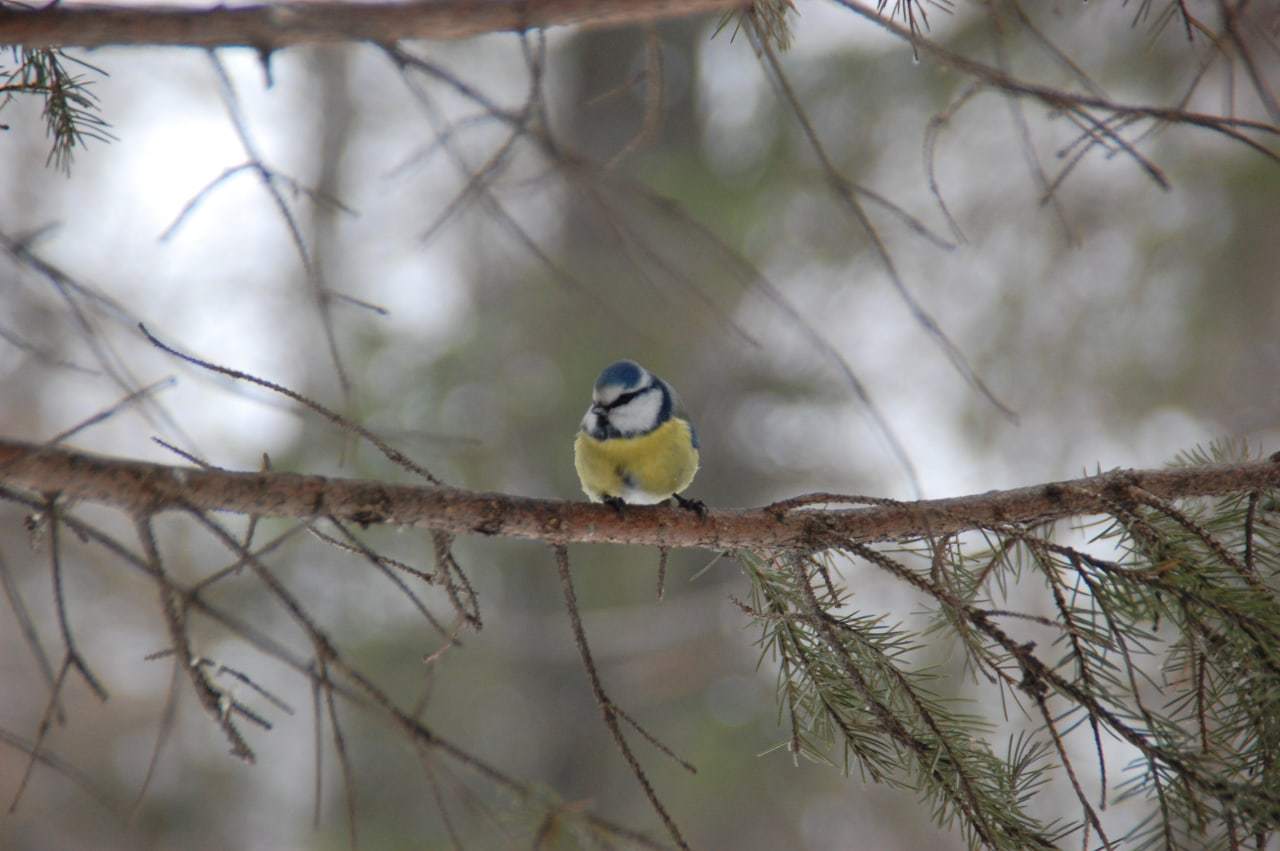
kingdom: Animalia
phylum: Chordata
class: Aves
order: Passeriformes
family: Paridae
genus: Cyanistes
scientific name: Cyanistes caeruleus
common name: Eurasian blue tit
